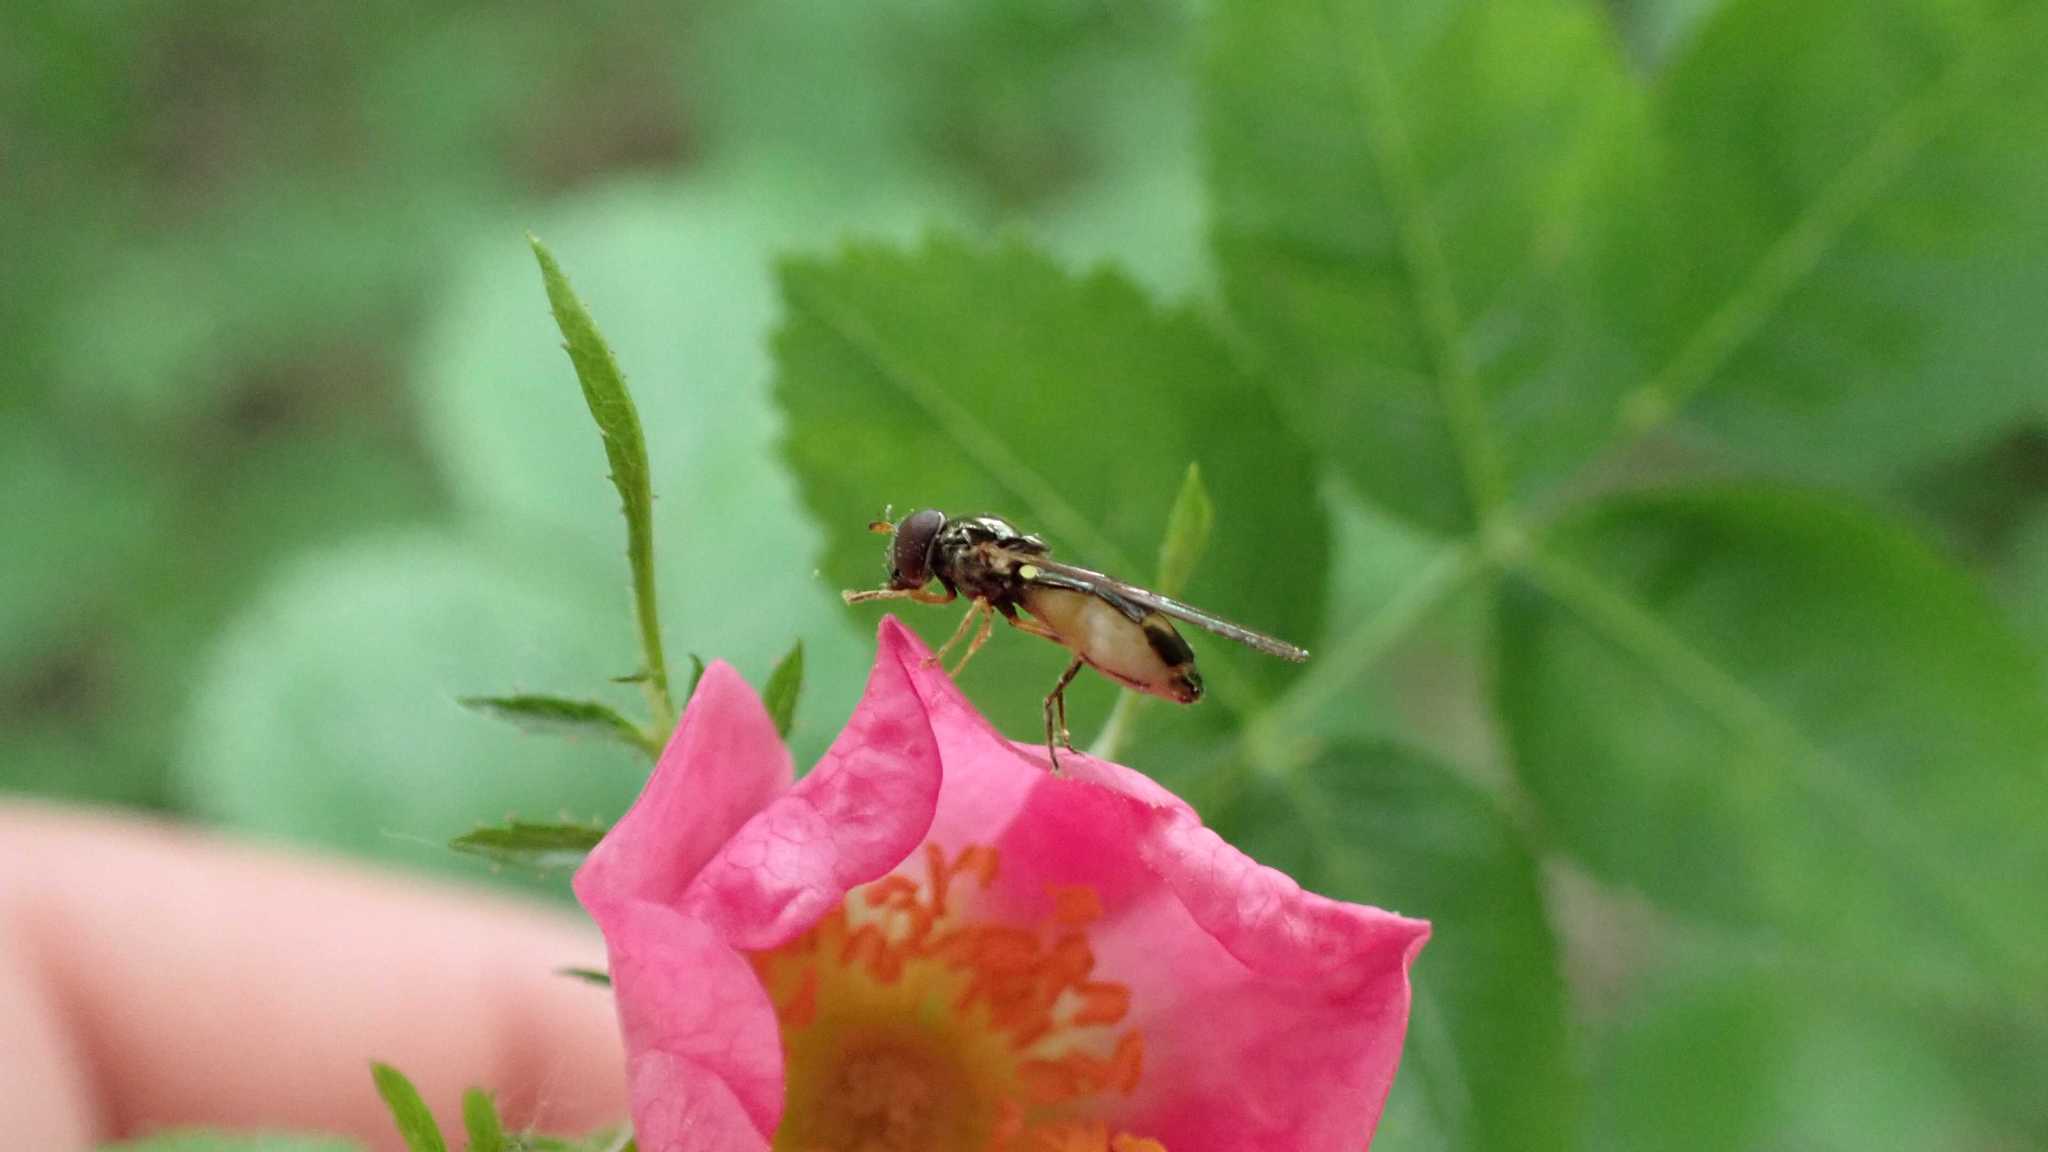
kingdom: Animalia
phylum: Arthropoda
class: Insecta
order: Diptera
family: Syrphidae
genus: Melanostoma
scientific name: Melanostoma scalare
